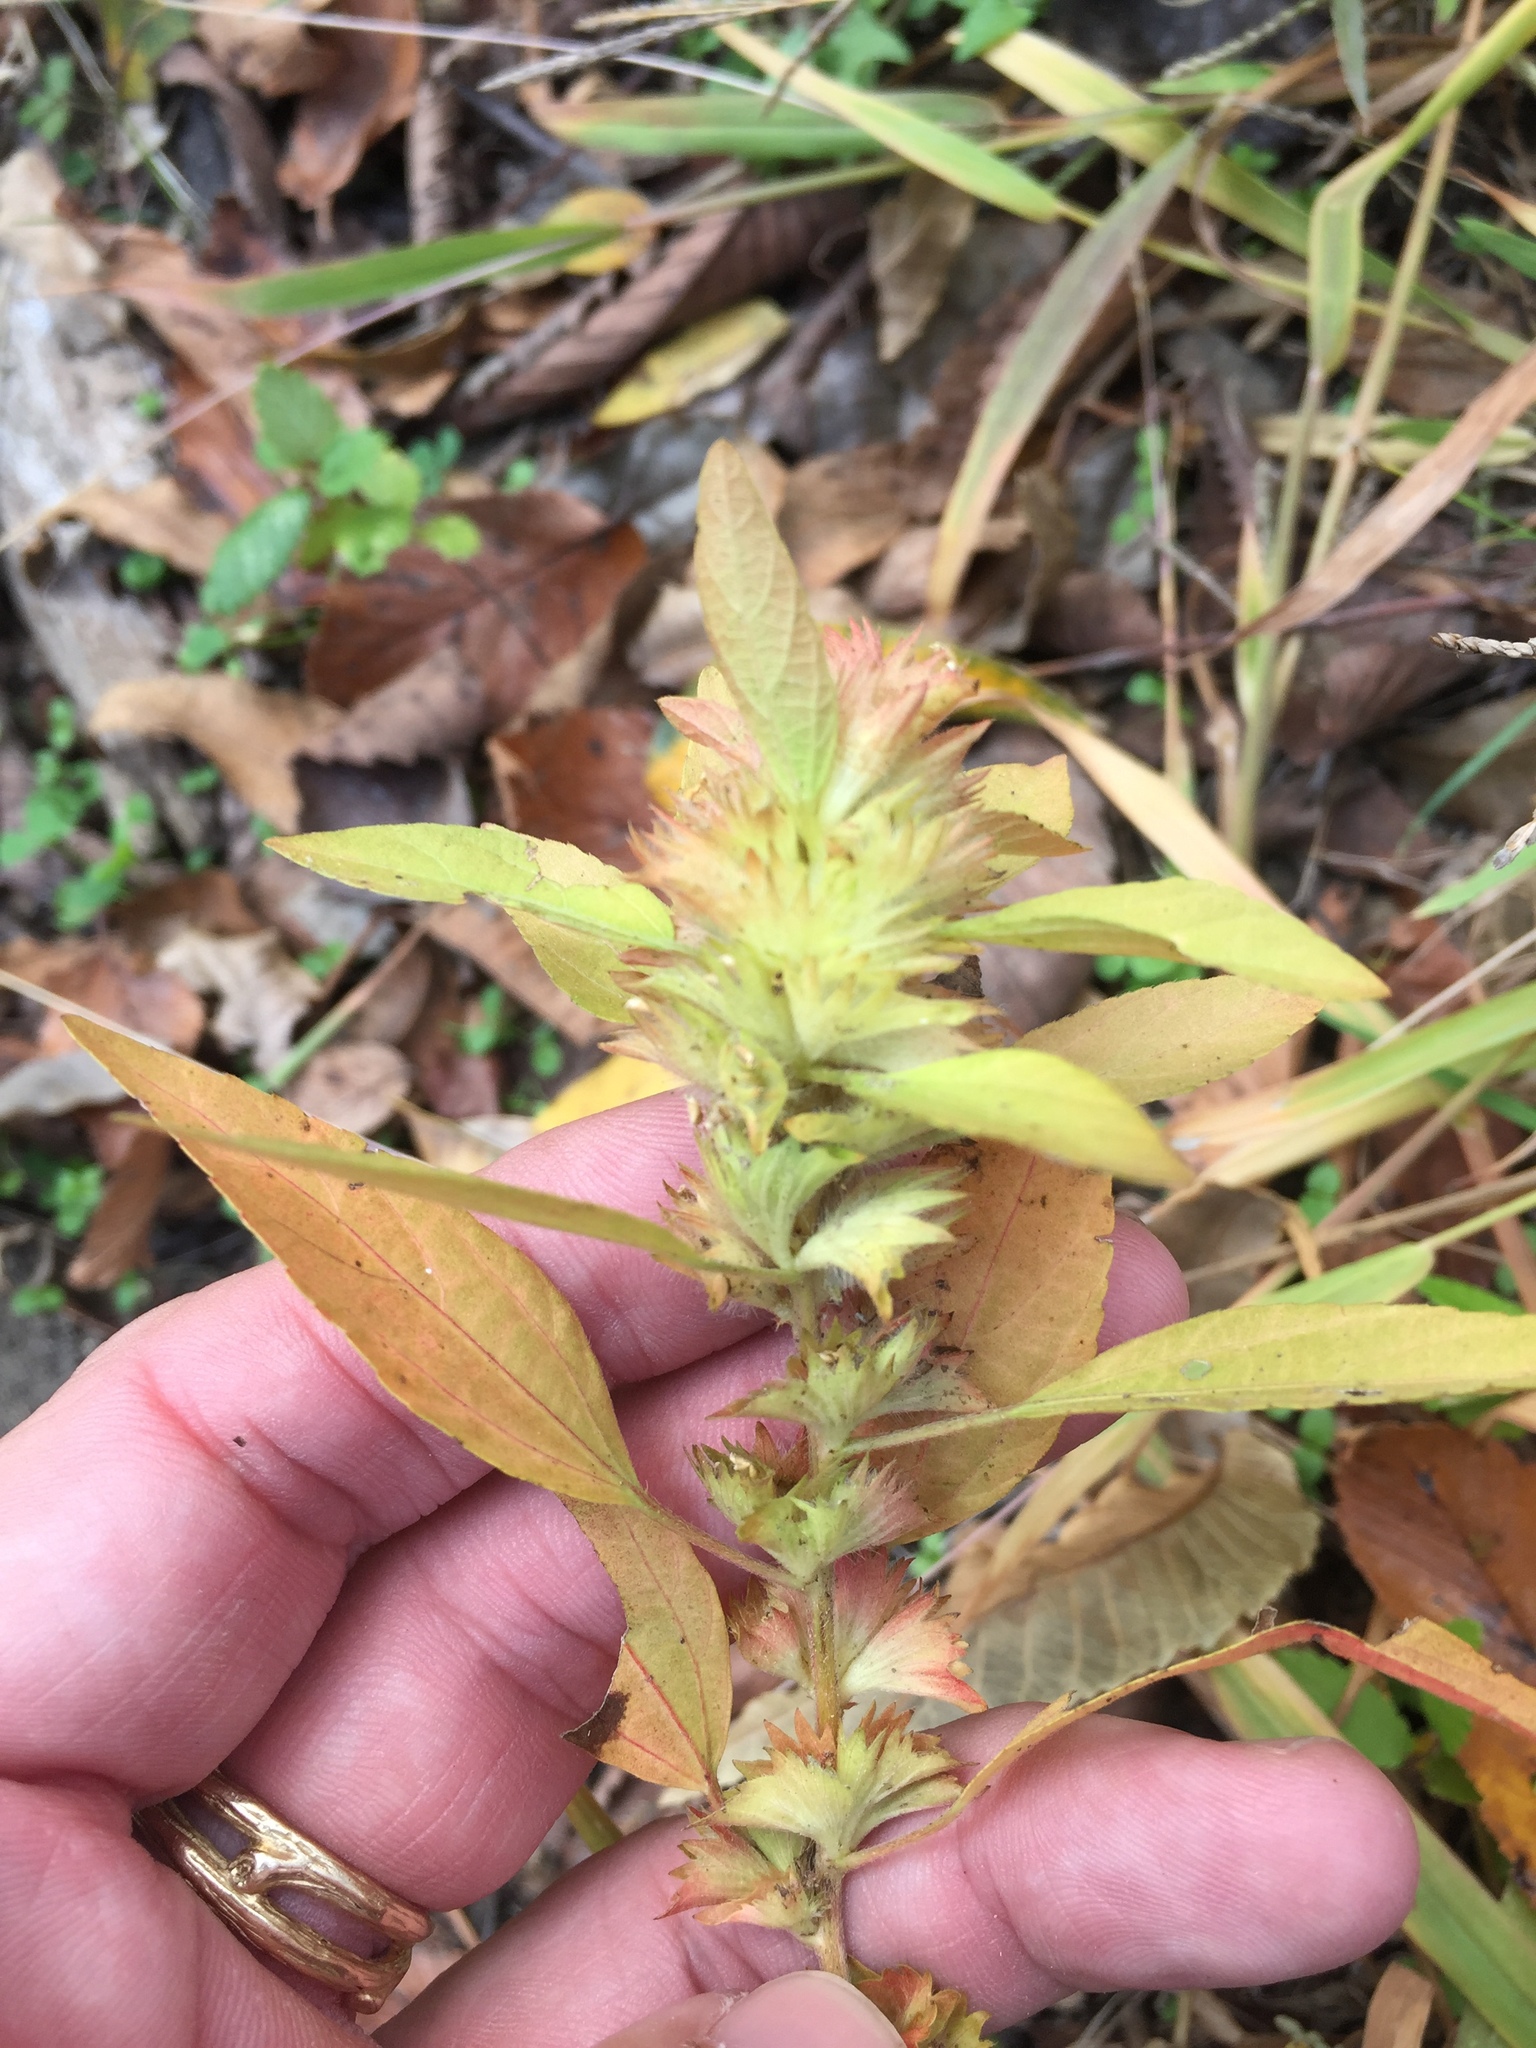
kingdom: Plantae
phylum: Tracheophyta
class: Magnoliopsida
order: Malpighiales
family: Euphorbiaceae
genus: Acalypha
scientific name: Acalypha virginica
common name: Virginia copperleaf
